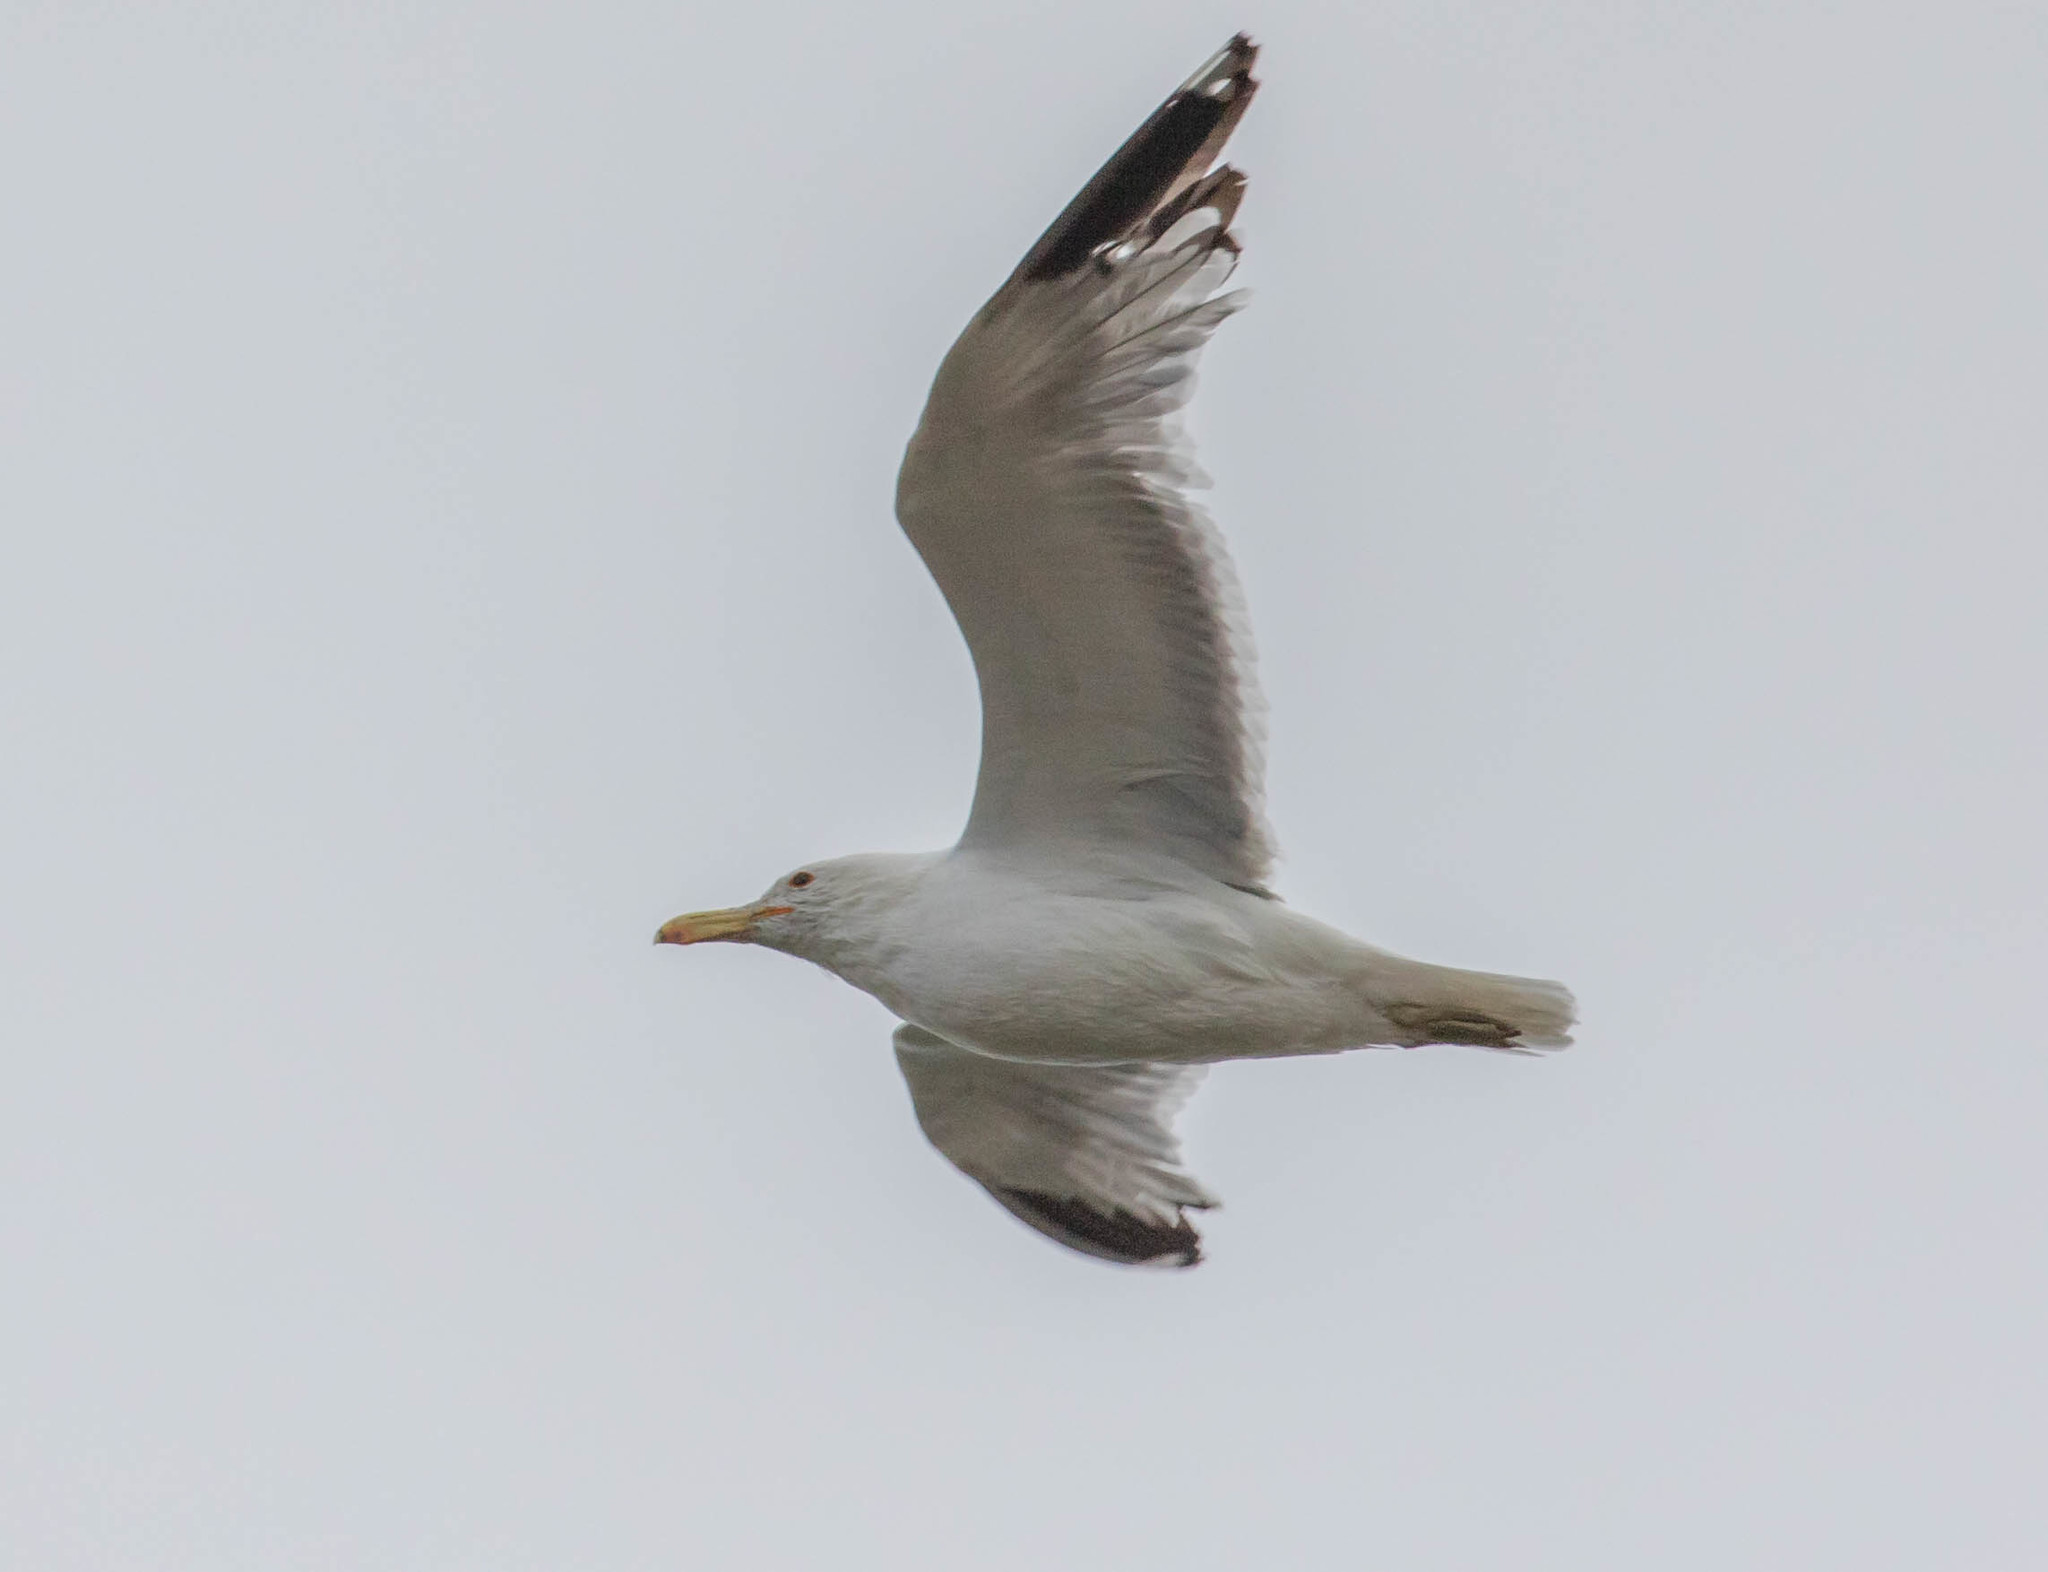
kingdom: Animalia
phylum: Chordata
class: Aves
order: Charadriiformes
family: Laridae
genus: Larus
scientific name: Larus californicus
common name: California gull
